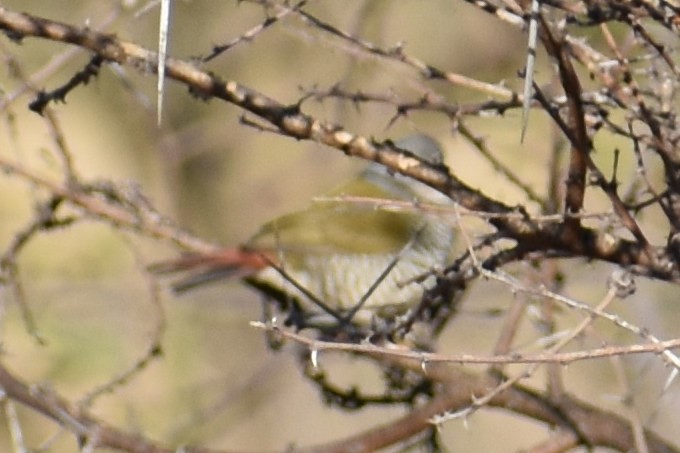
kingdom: Animalia
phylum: Chordata
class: Aves
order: Passeriformes
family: Estrildidae
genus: Pytilia
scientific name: Pytilia melba
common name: Green-winged pytilia
